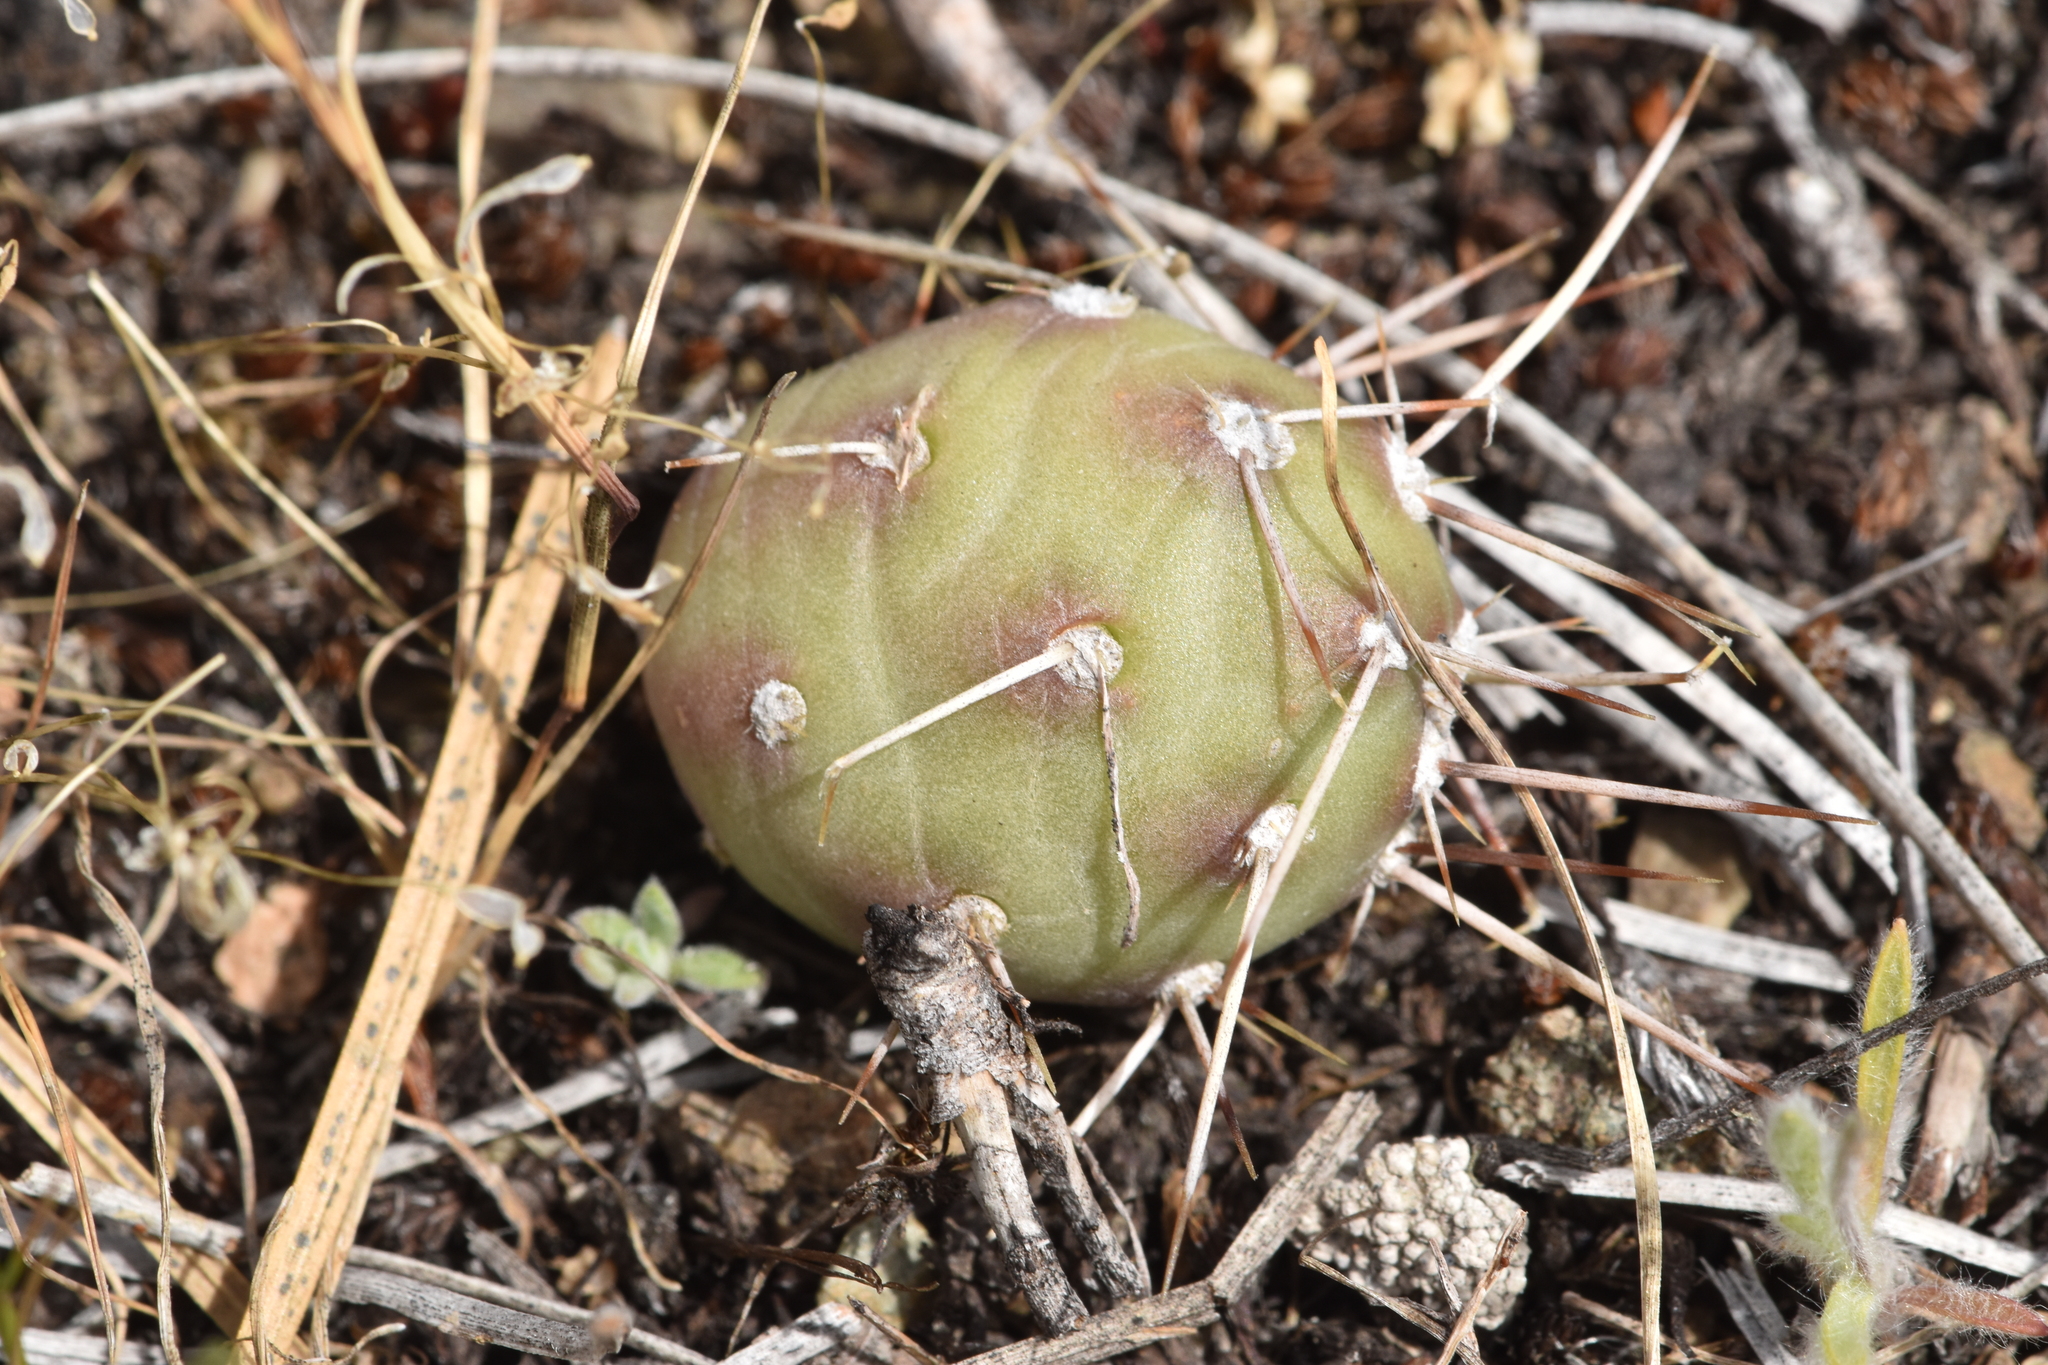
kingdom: Plantae
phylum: Tracheophyta
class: Magnoliopsida
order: Caryophyllales
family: Cactaceae
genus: Opuntia
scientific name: Opuntia fragilis
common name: Brittle cactus
